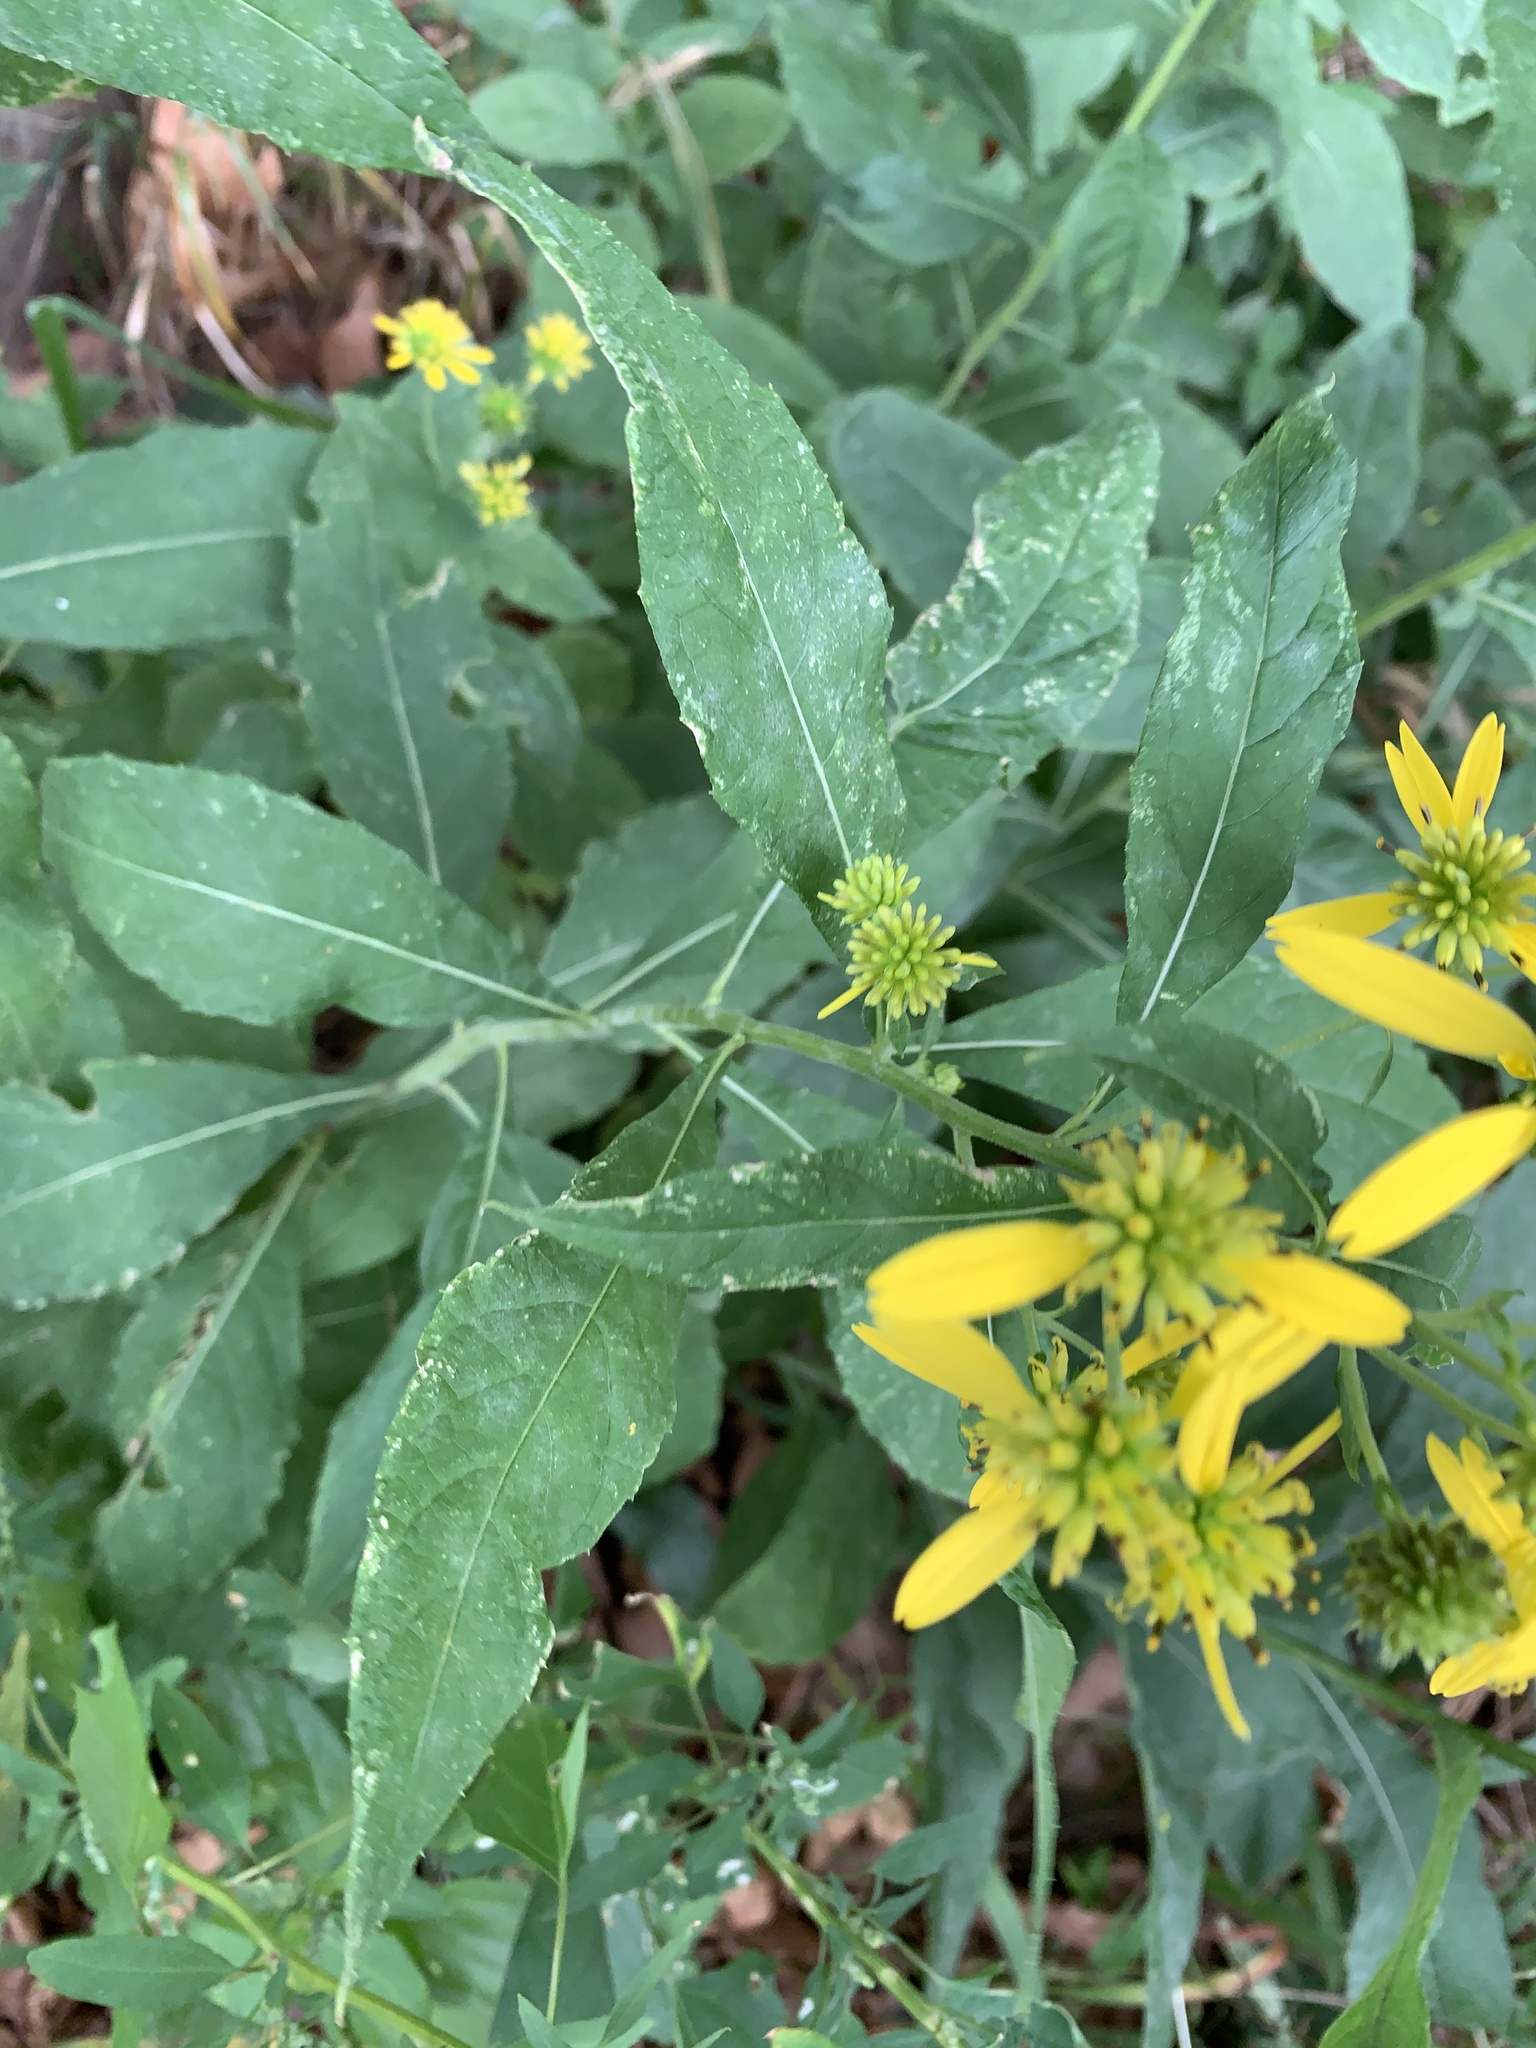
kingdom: Plantae
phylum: Tracheophyta
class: Magnoliopsida
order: Asterales
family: Asteraceae
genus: Verbesina
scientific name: Verbesina alternifolia
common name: Wingstem
